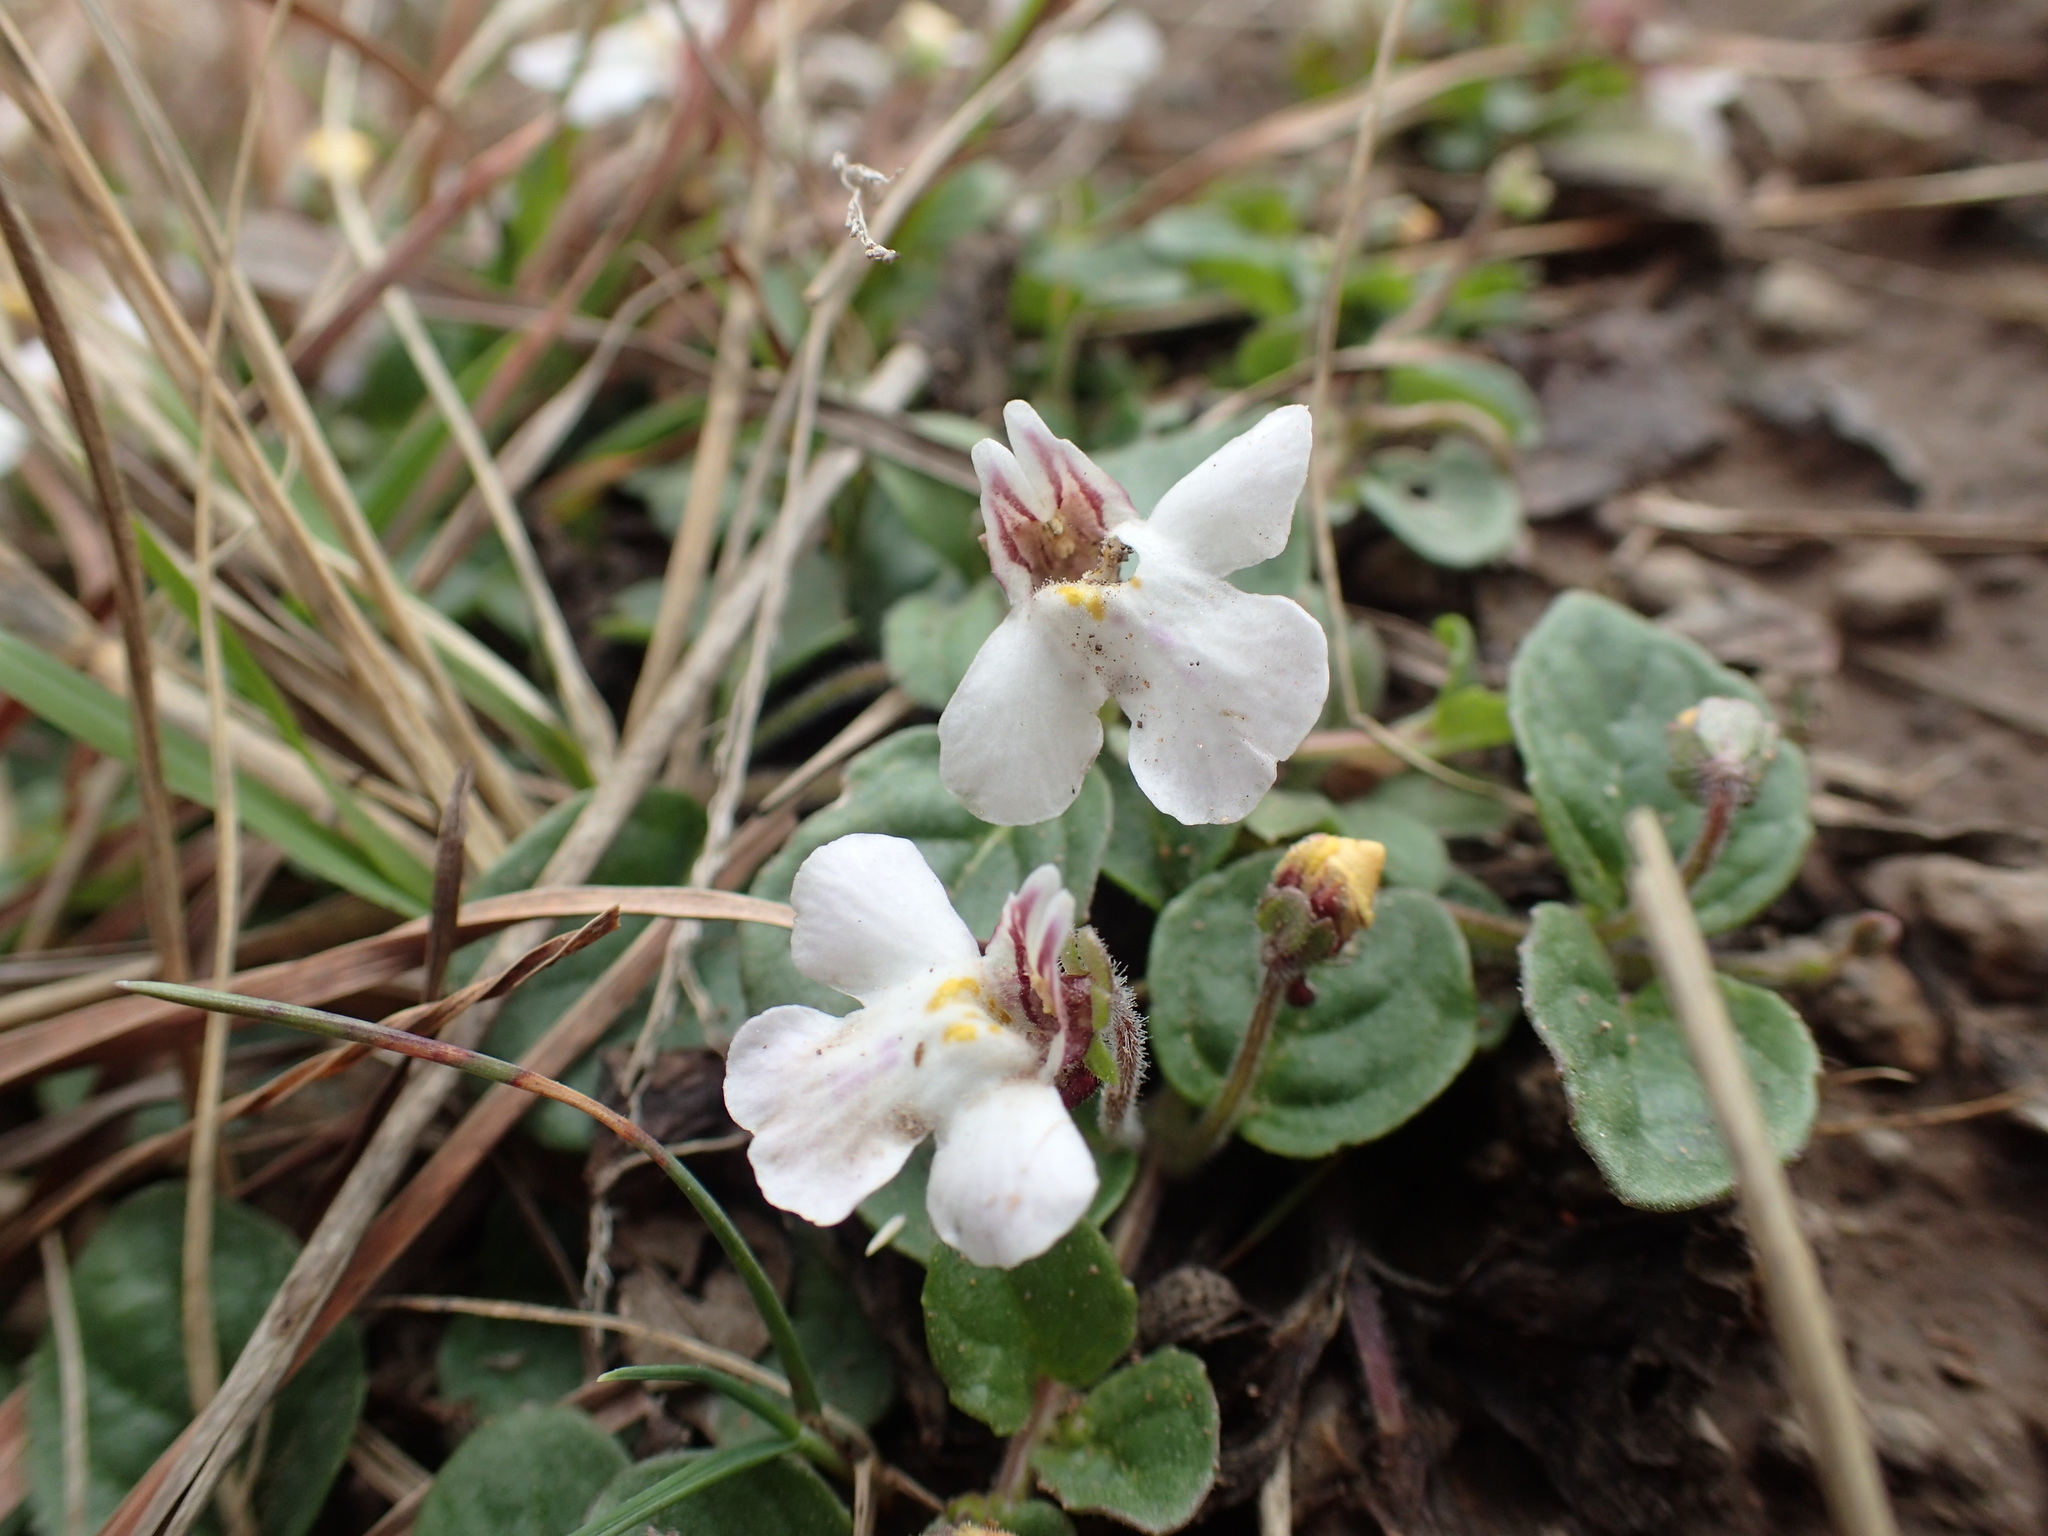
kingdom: Plantae
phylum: Tracheophyta
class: Magnoliopsida
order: Lamiales
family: Scrophulariaceae
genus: Diclis
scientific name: Diclis reptans
